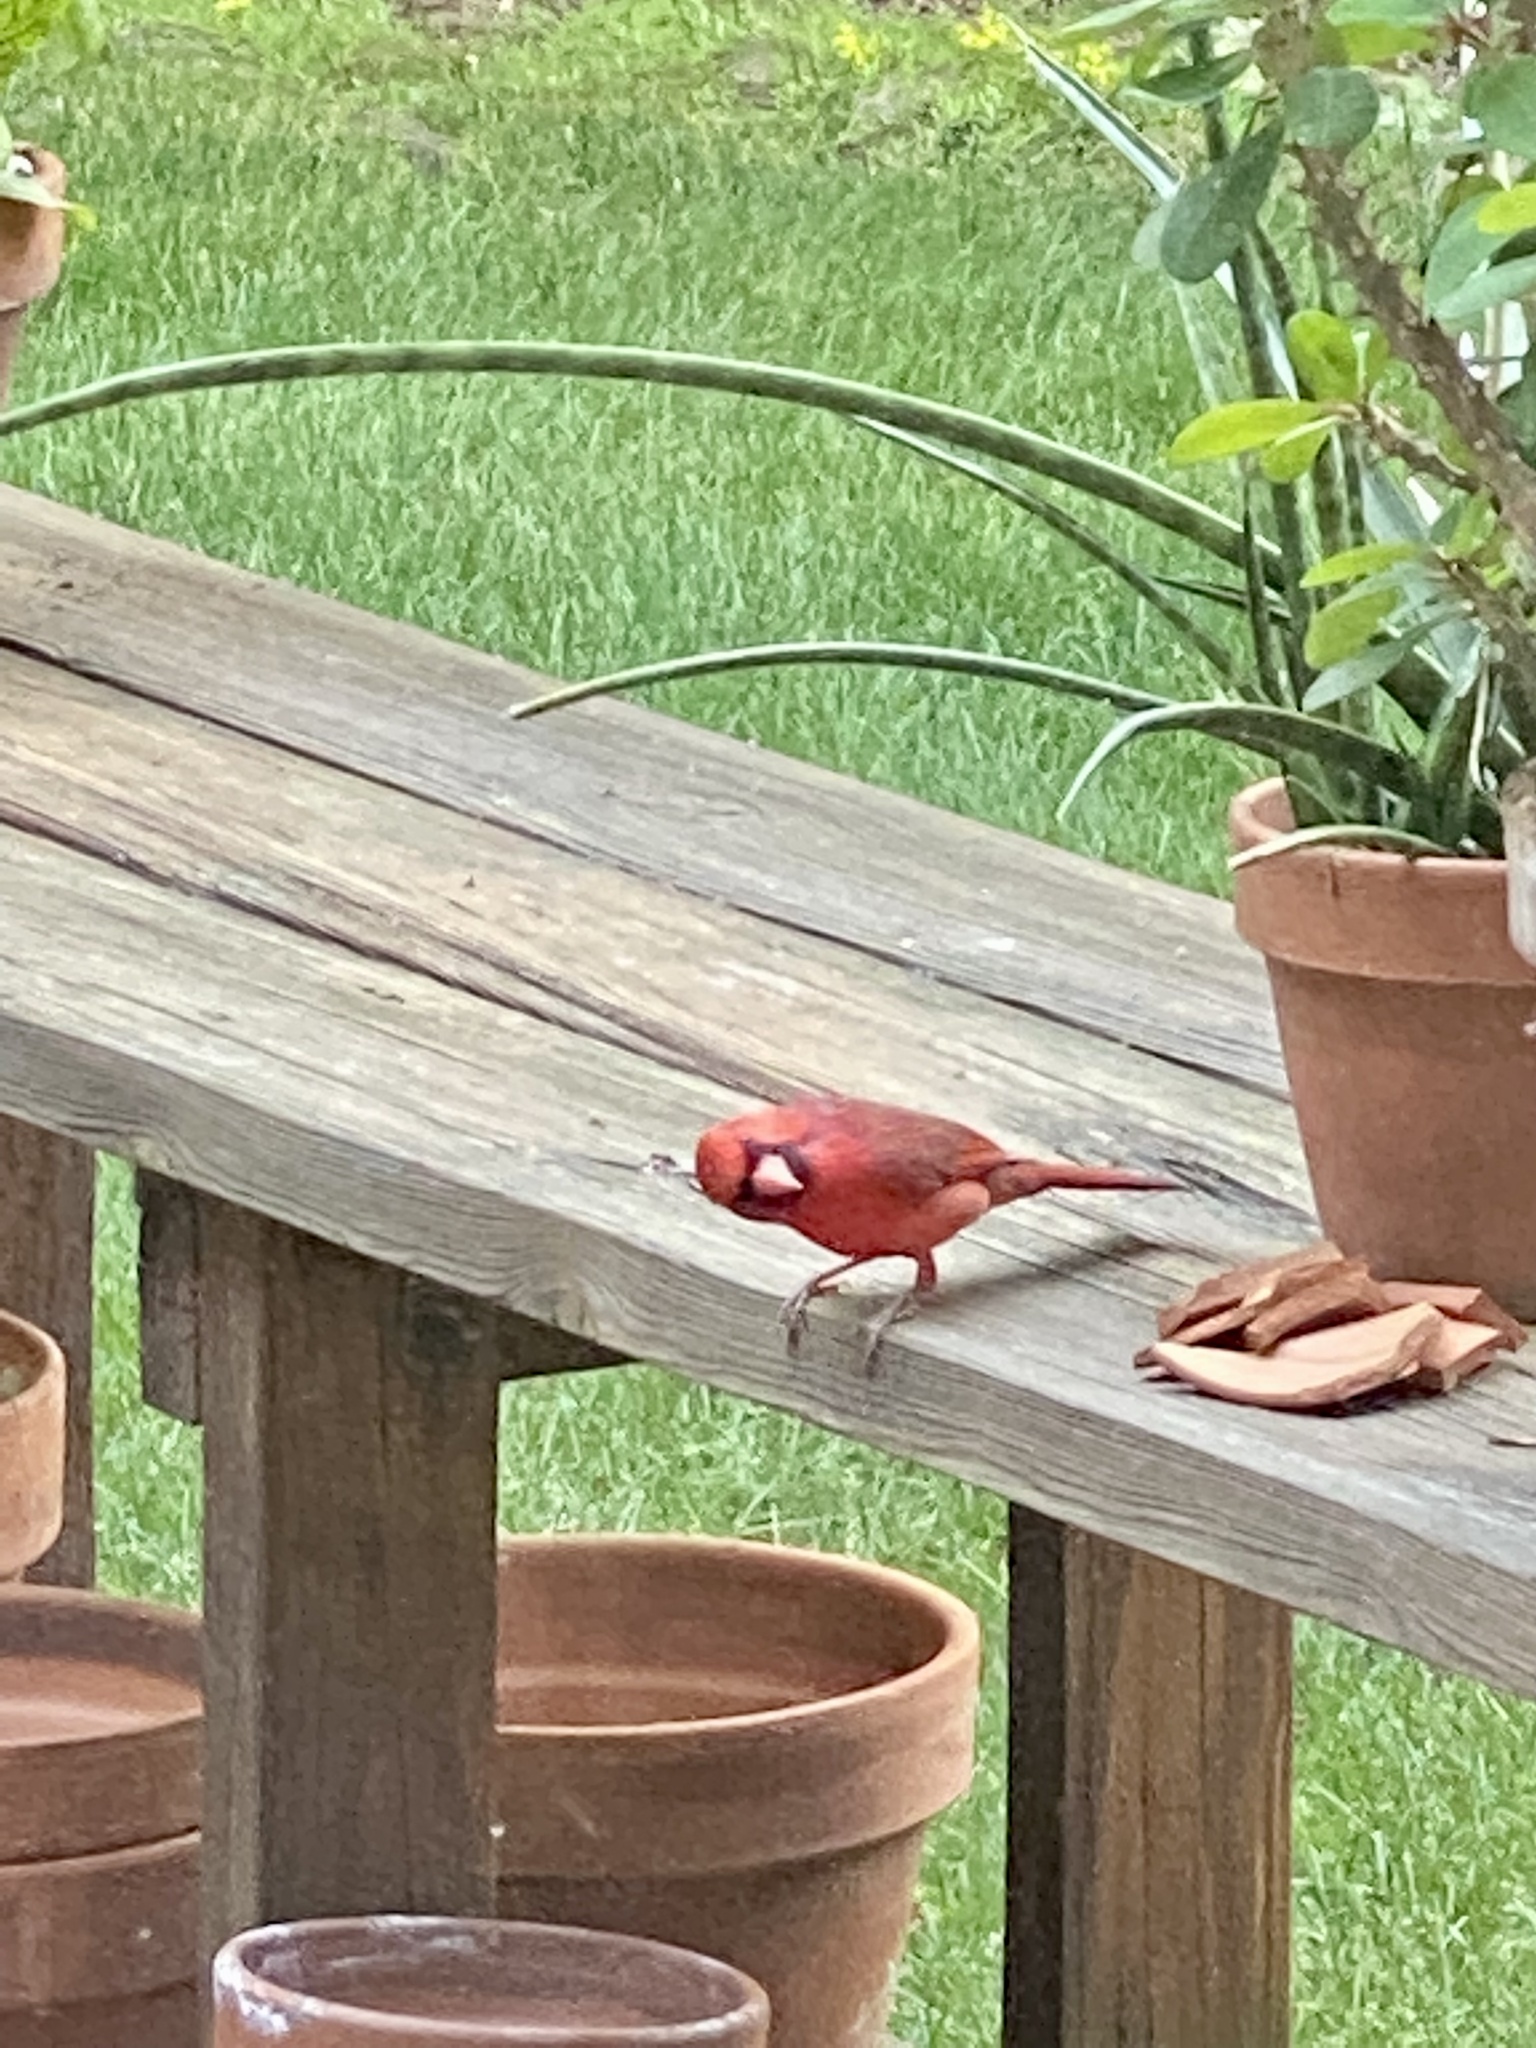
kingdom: Animalia
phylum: Chordata
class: Aves
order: Passeriformes
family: Cardinalidae
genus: Cardinalis
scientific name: Cardinalis cardinalis
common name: Northern cardinal
